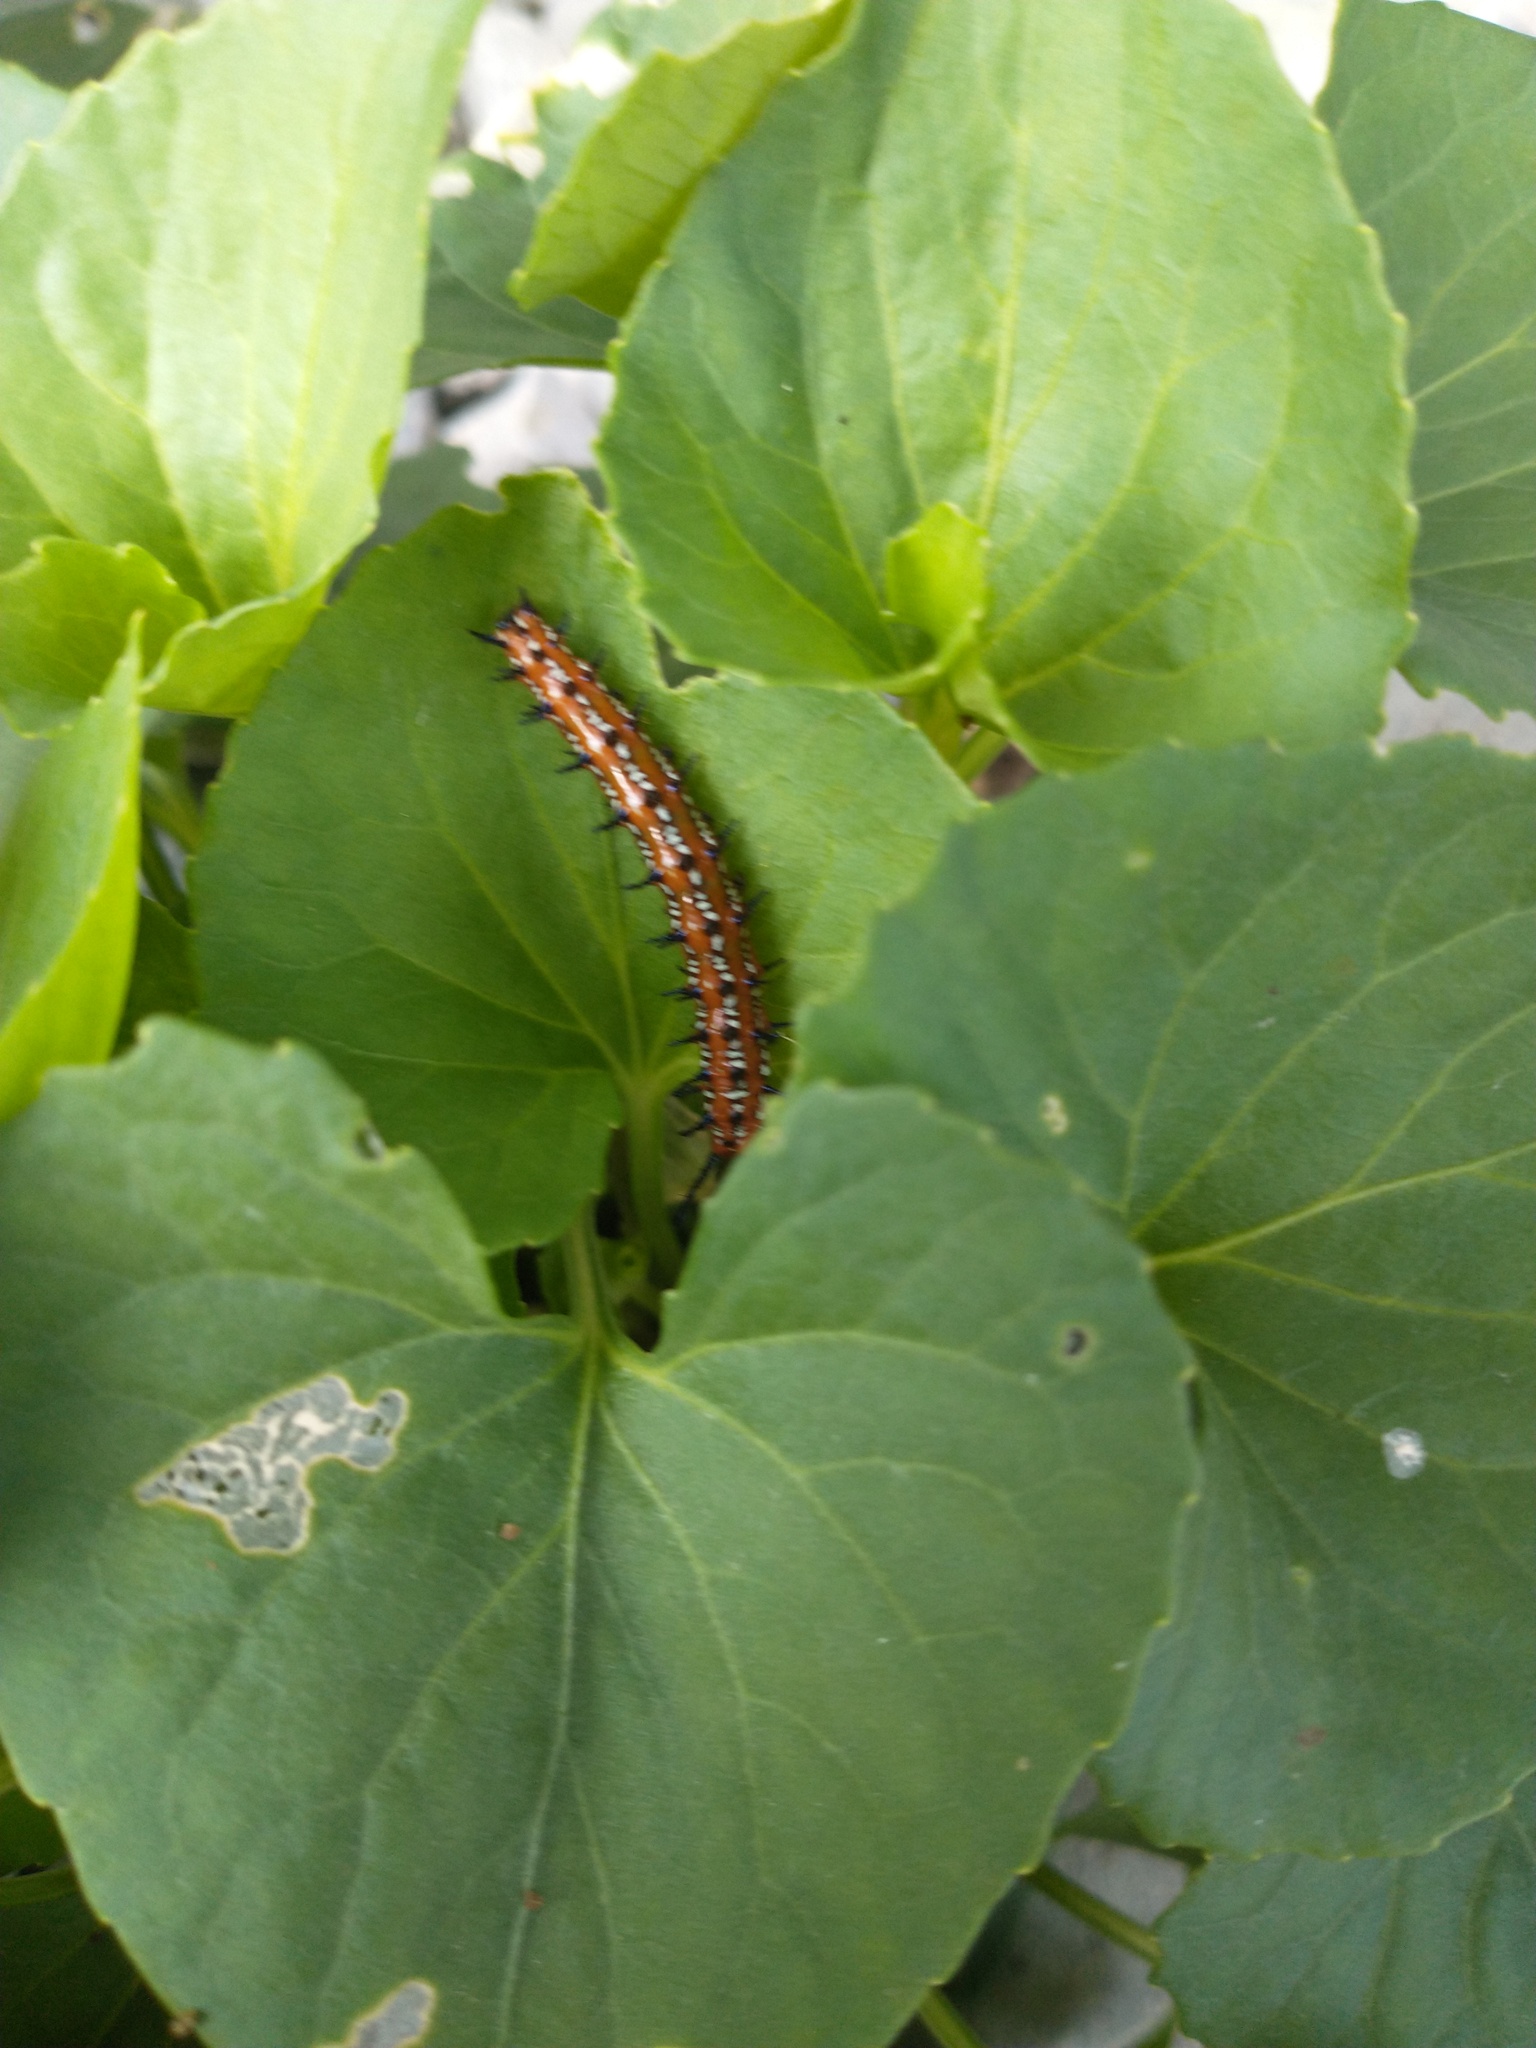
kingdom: Animalia
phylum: Arthropoda
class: Insecta
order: Lepidoptera
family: Nymphalidae
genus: Euptoieta
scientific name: Euptoieta claudia
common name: Variegated fritillary
